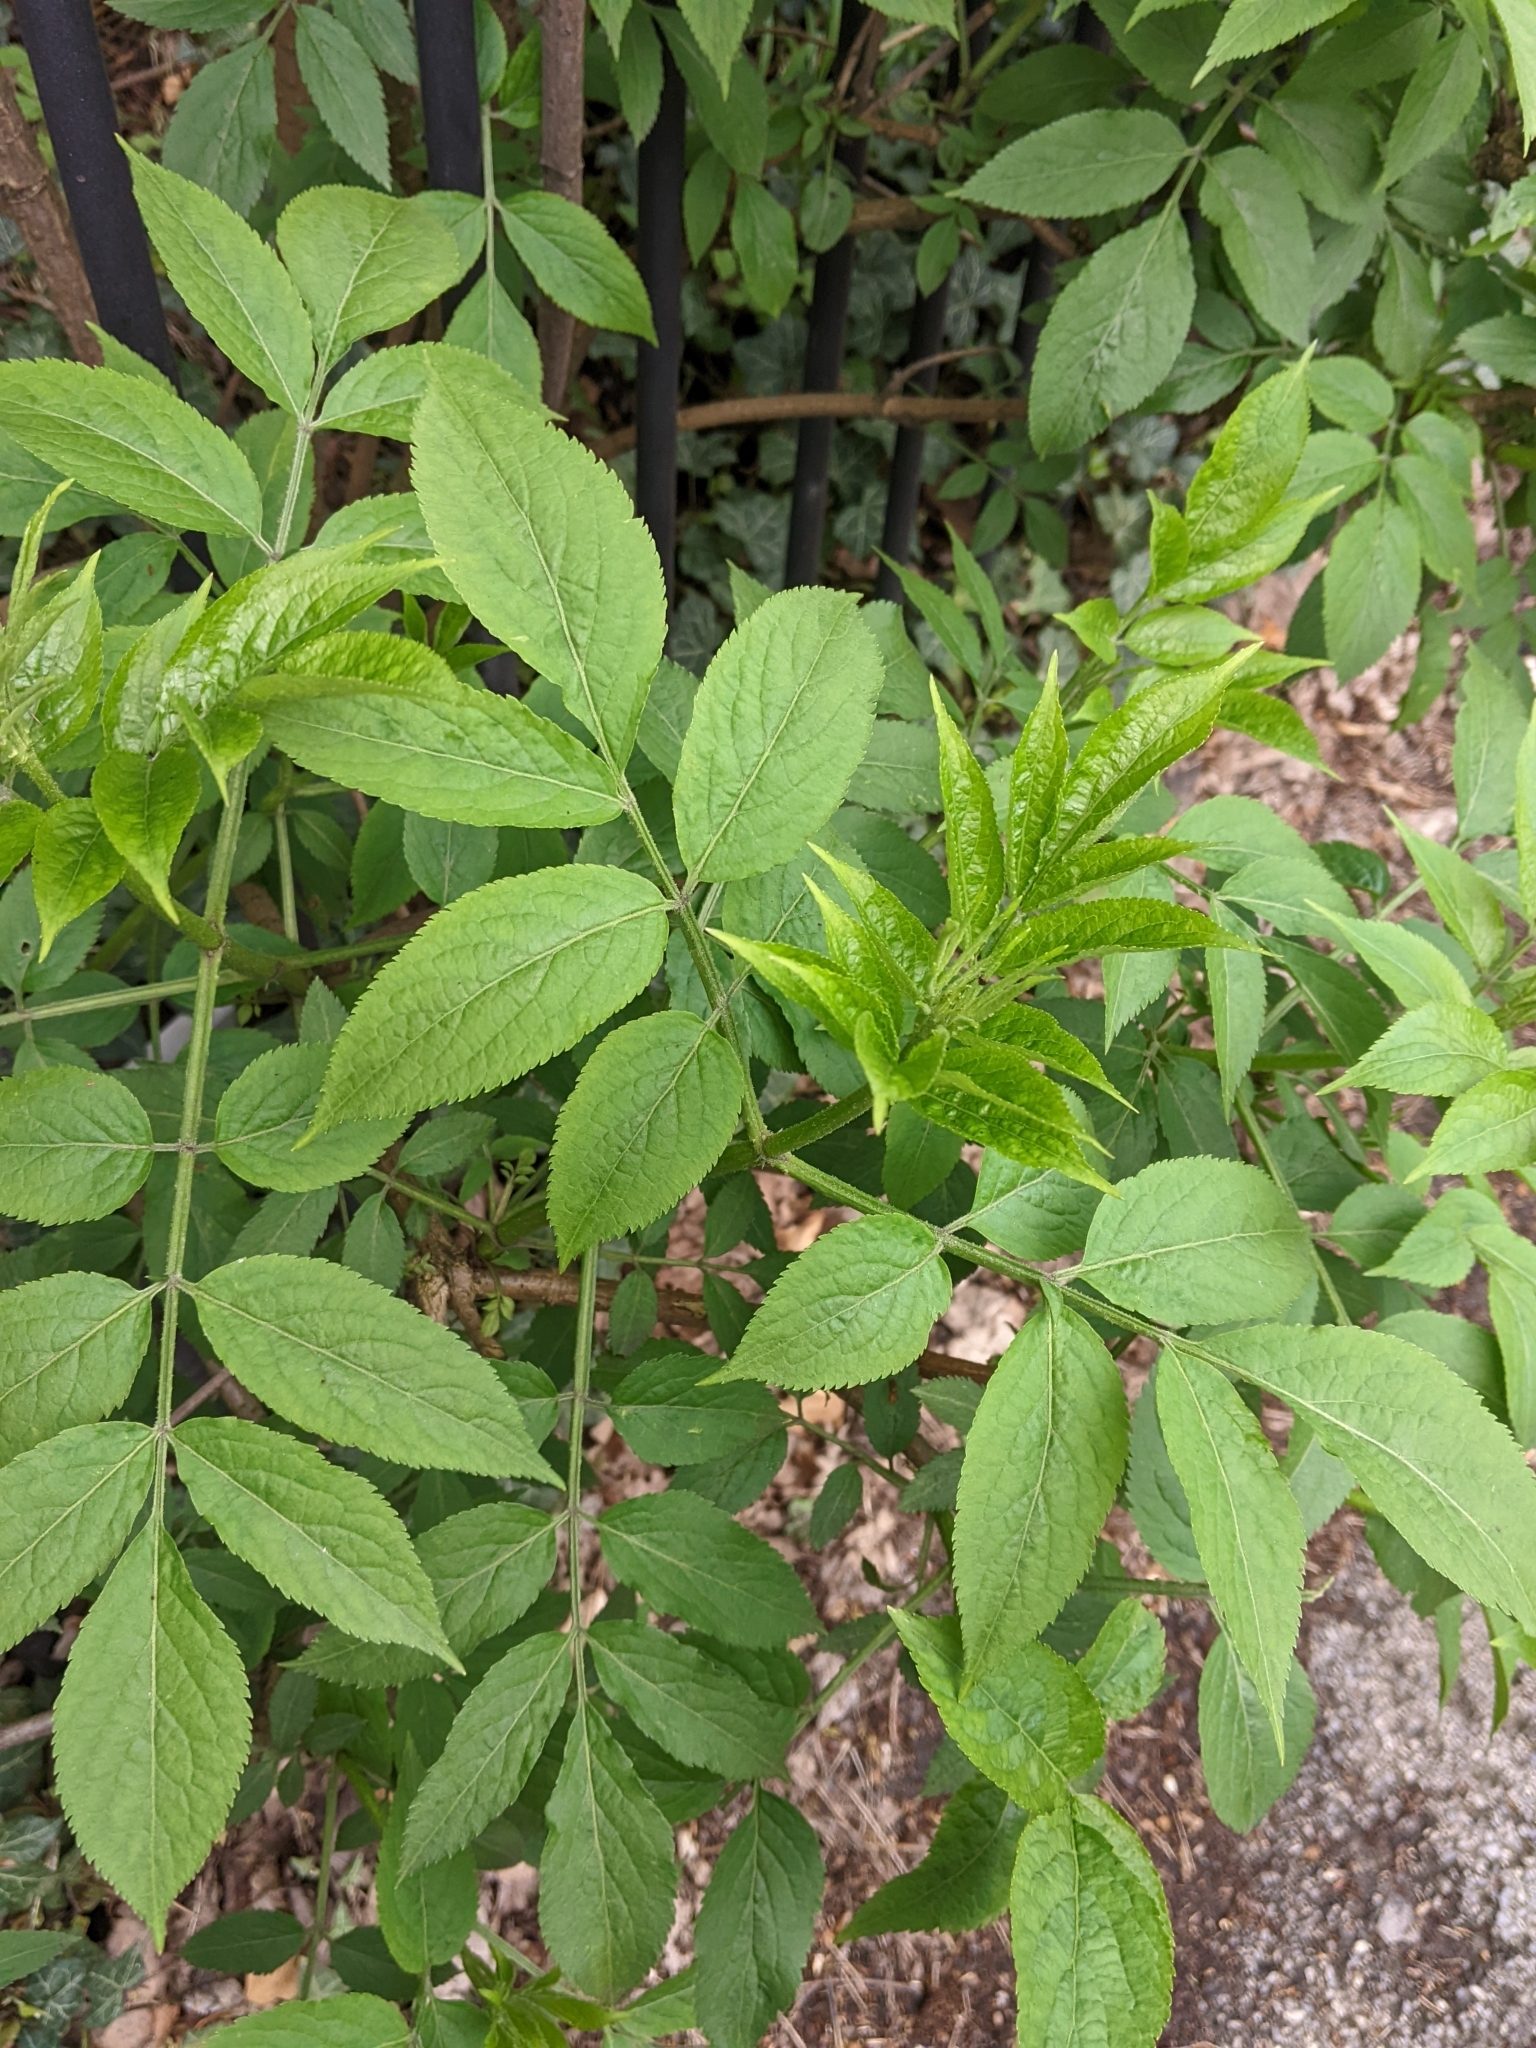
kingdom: Plantae
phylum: Tracheophyta
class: Magnoliopsida
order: Dipsacales
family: Viburnaceae
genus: Sambucus
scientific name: Sambucus nigra
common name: Elder
